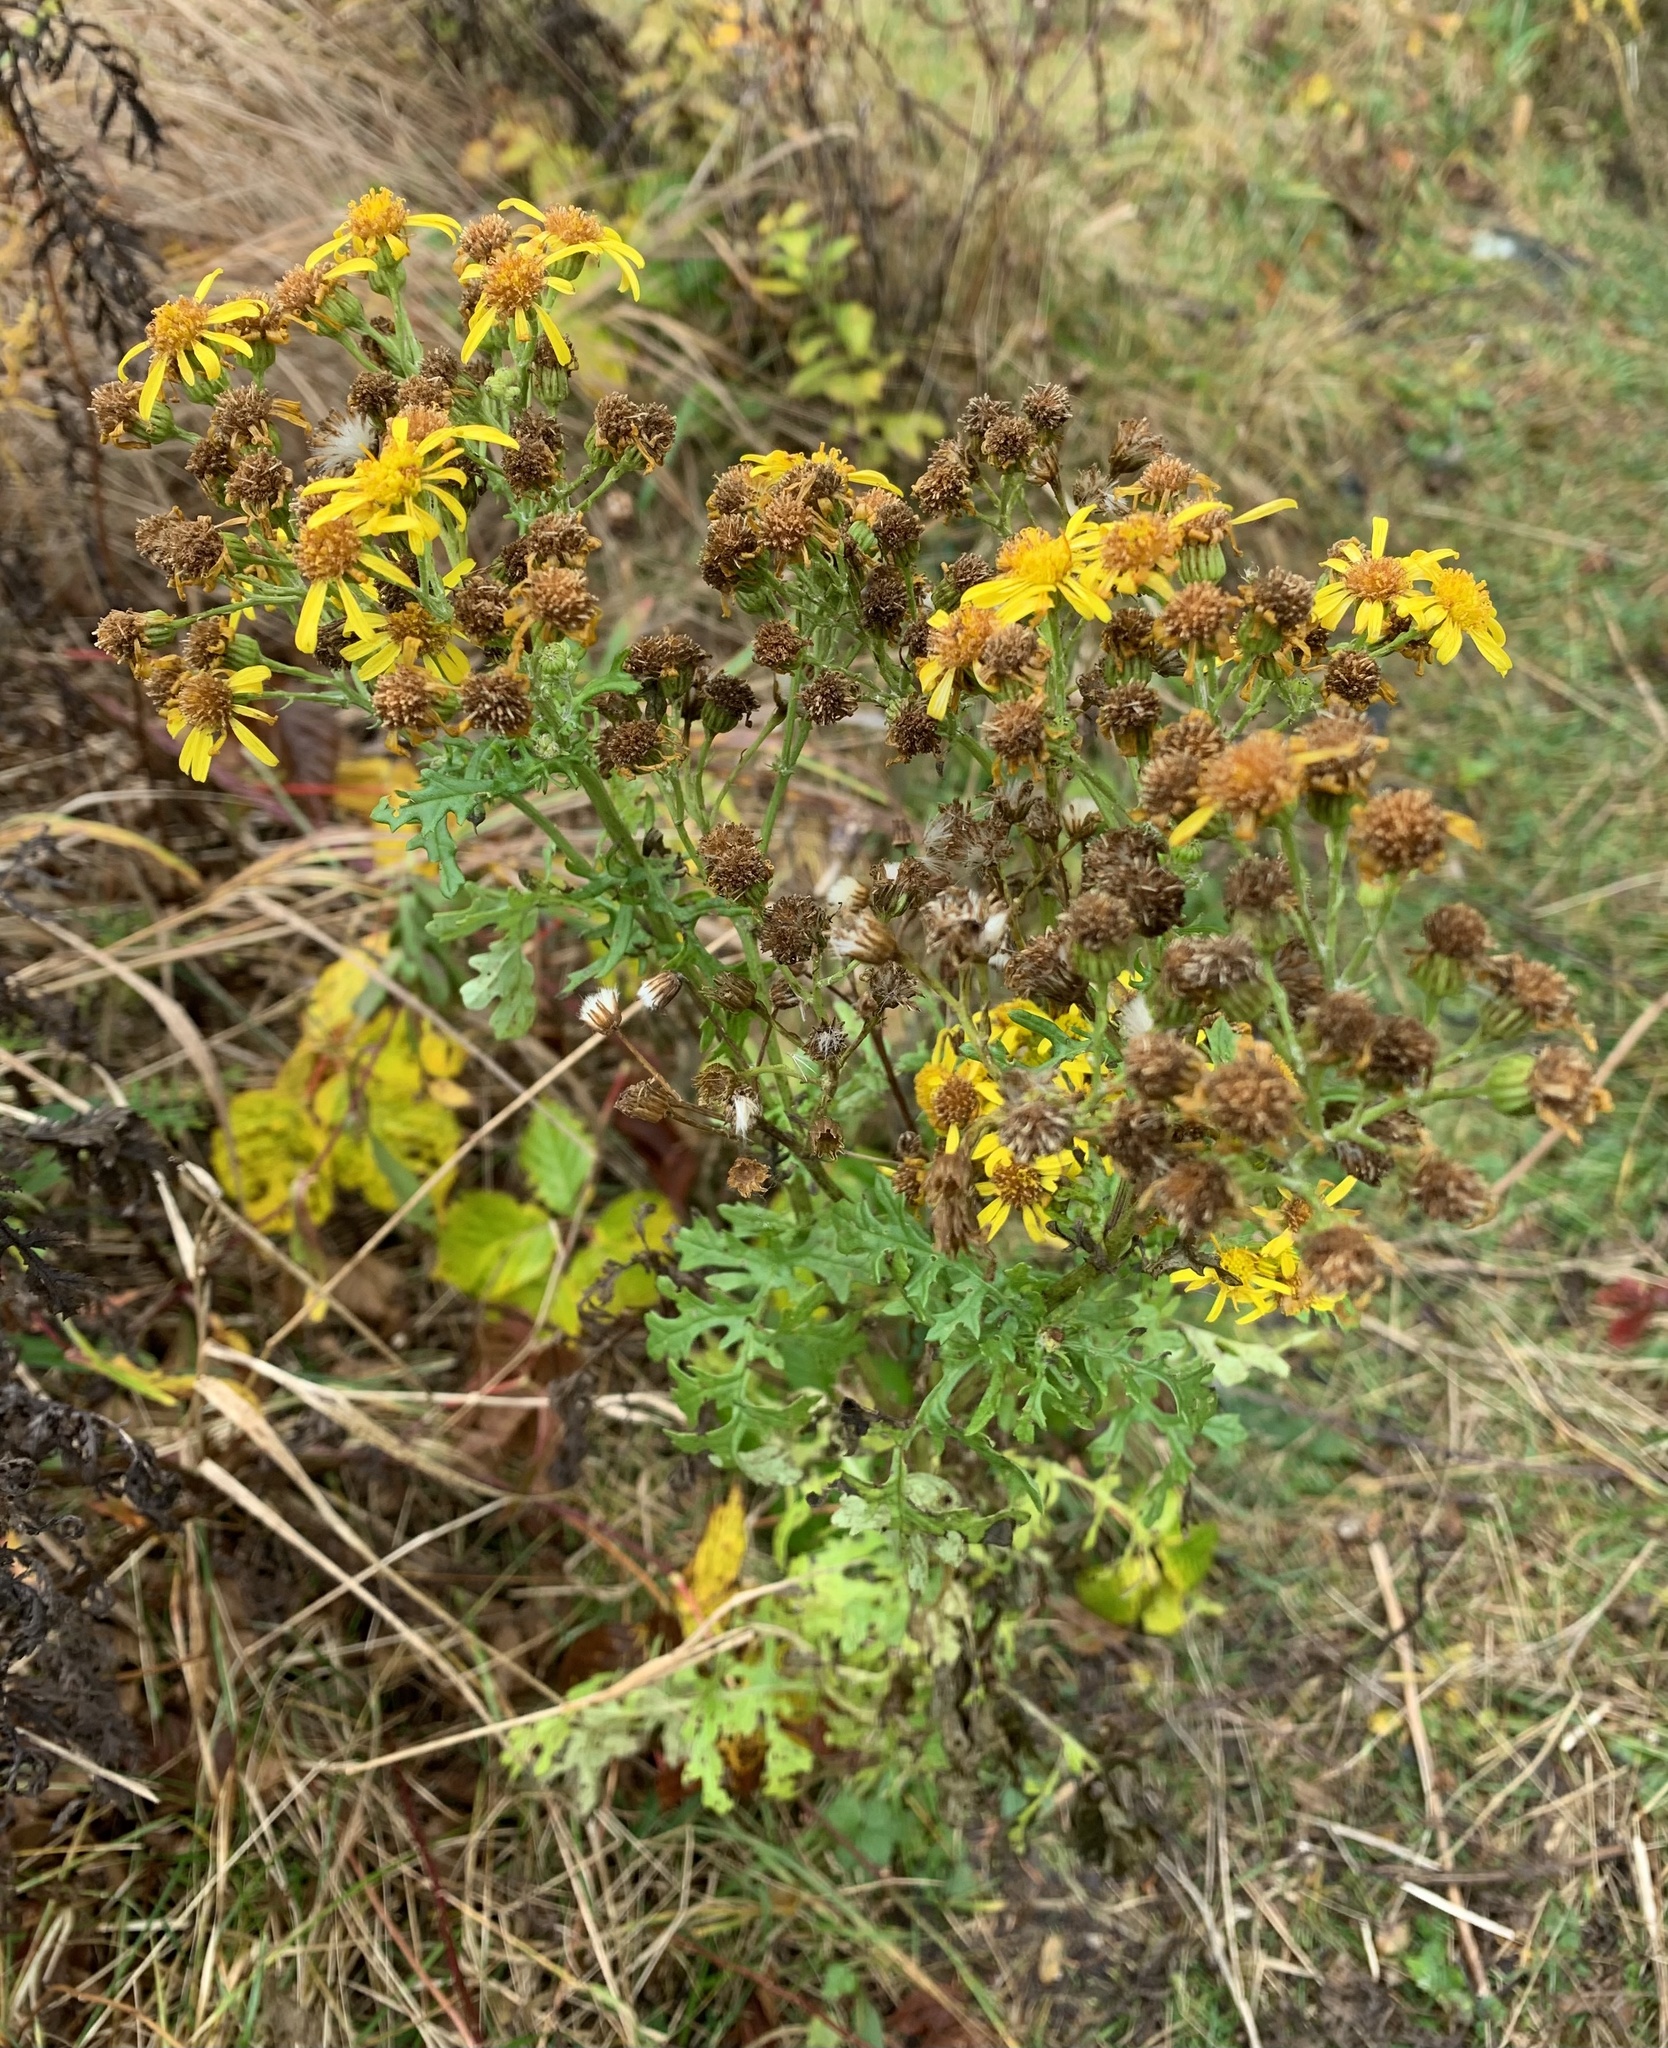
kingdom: Plantae
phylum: Tracheophyta
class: Magnoliopsida
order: Asterales
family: Asteraceae
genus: Jacobaea
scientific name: Jacobaea vulgaris
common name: Stinking willie
